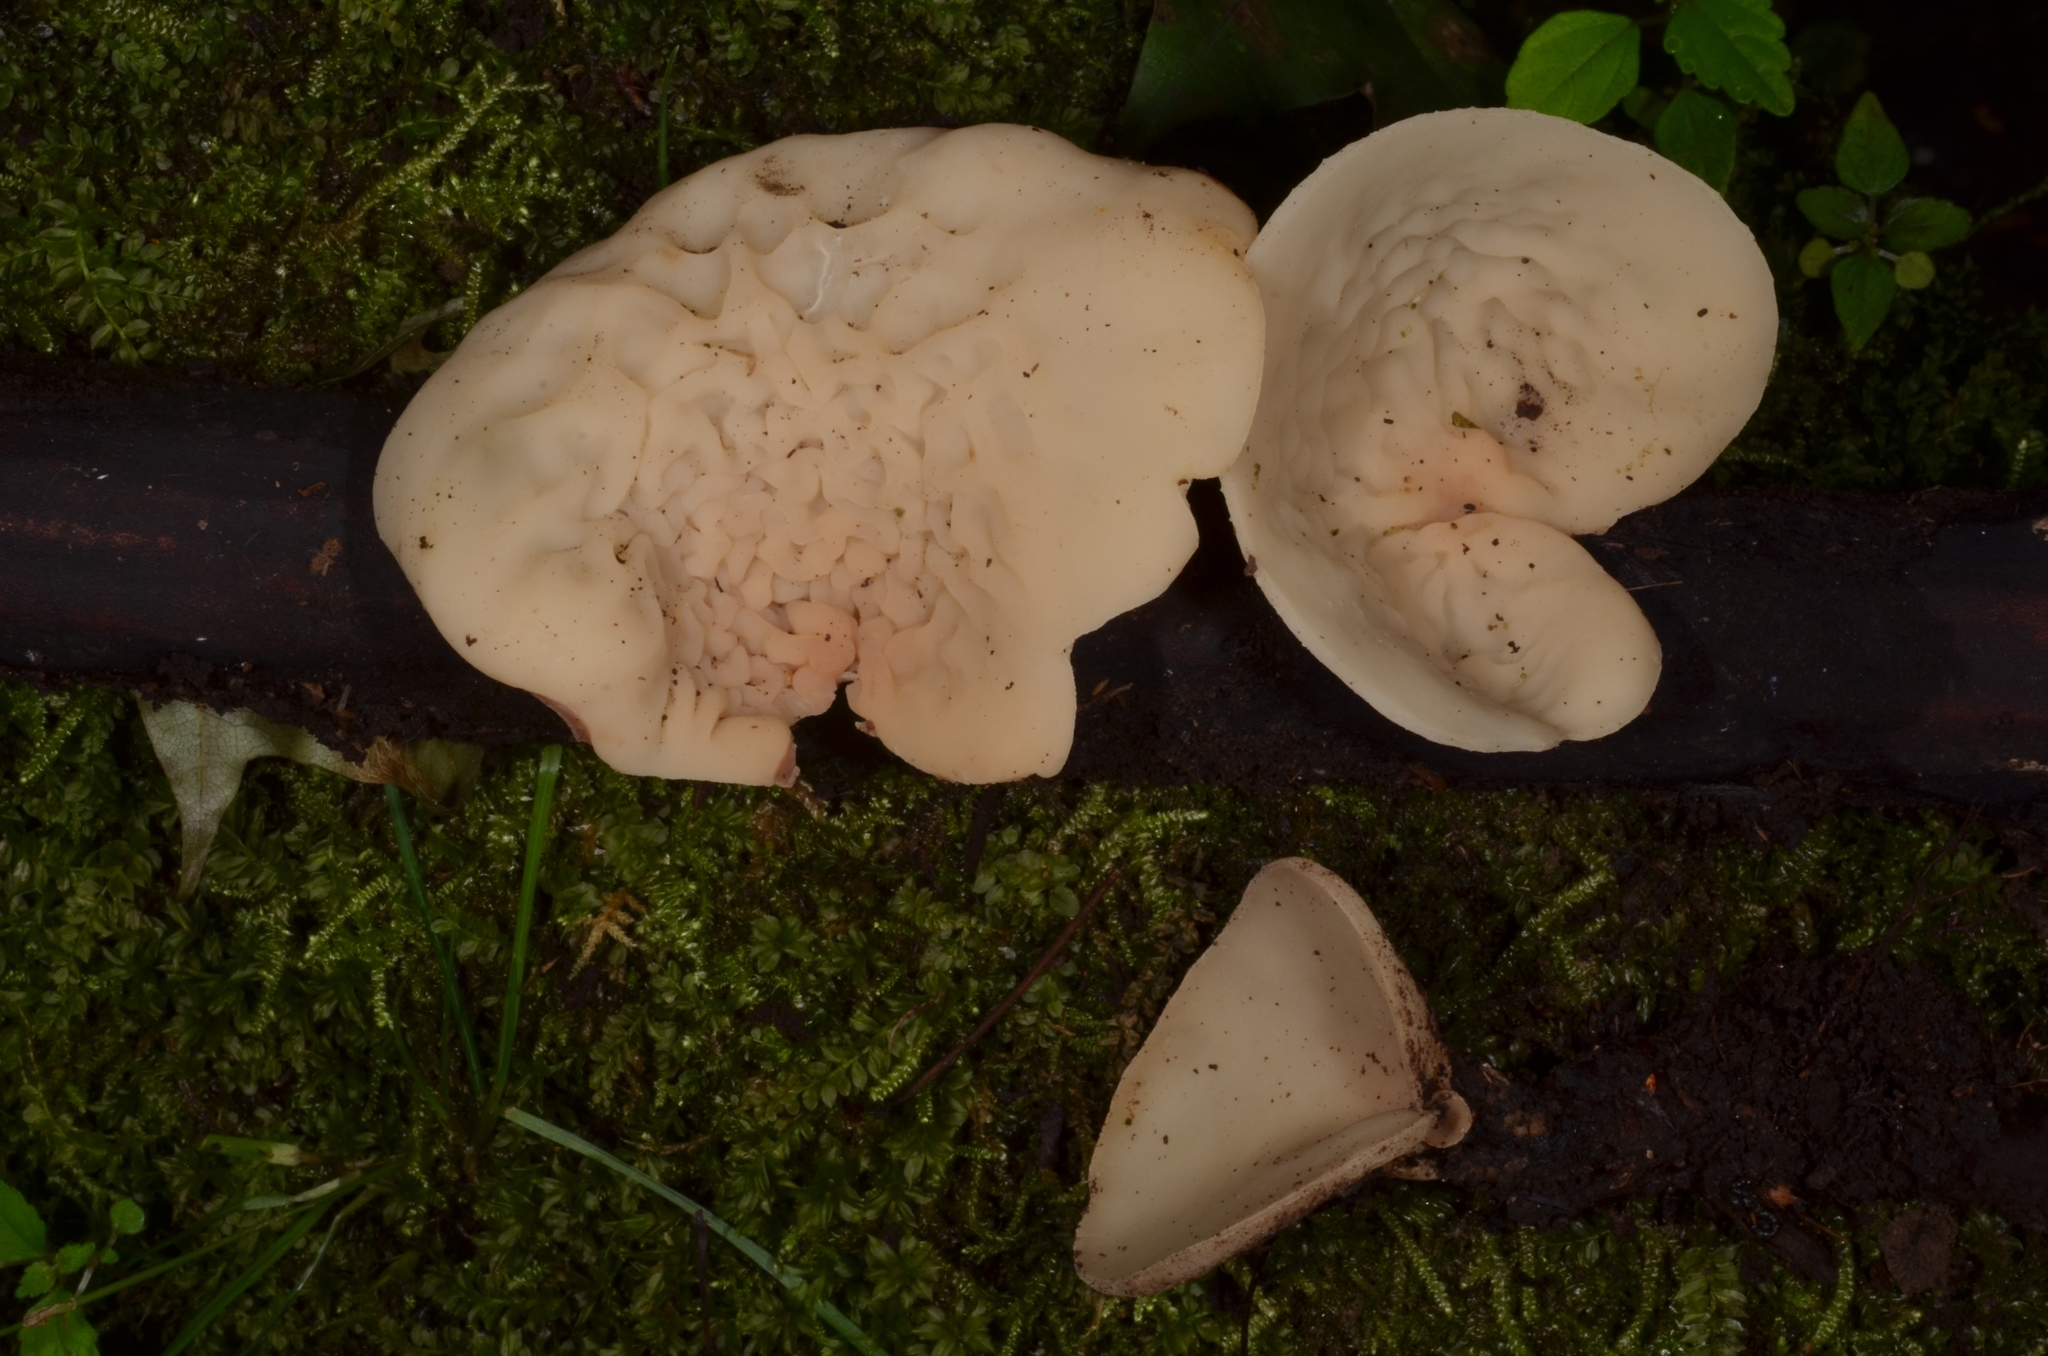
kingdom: Fungi
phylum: Ascomycota
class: Pezizomycetes
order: Pezizales
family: Sarcoscyphaceae
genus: Sarcoscypha
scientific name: Sarcoscypha vassiljevae
